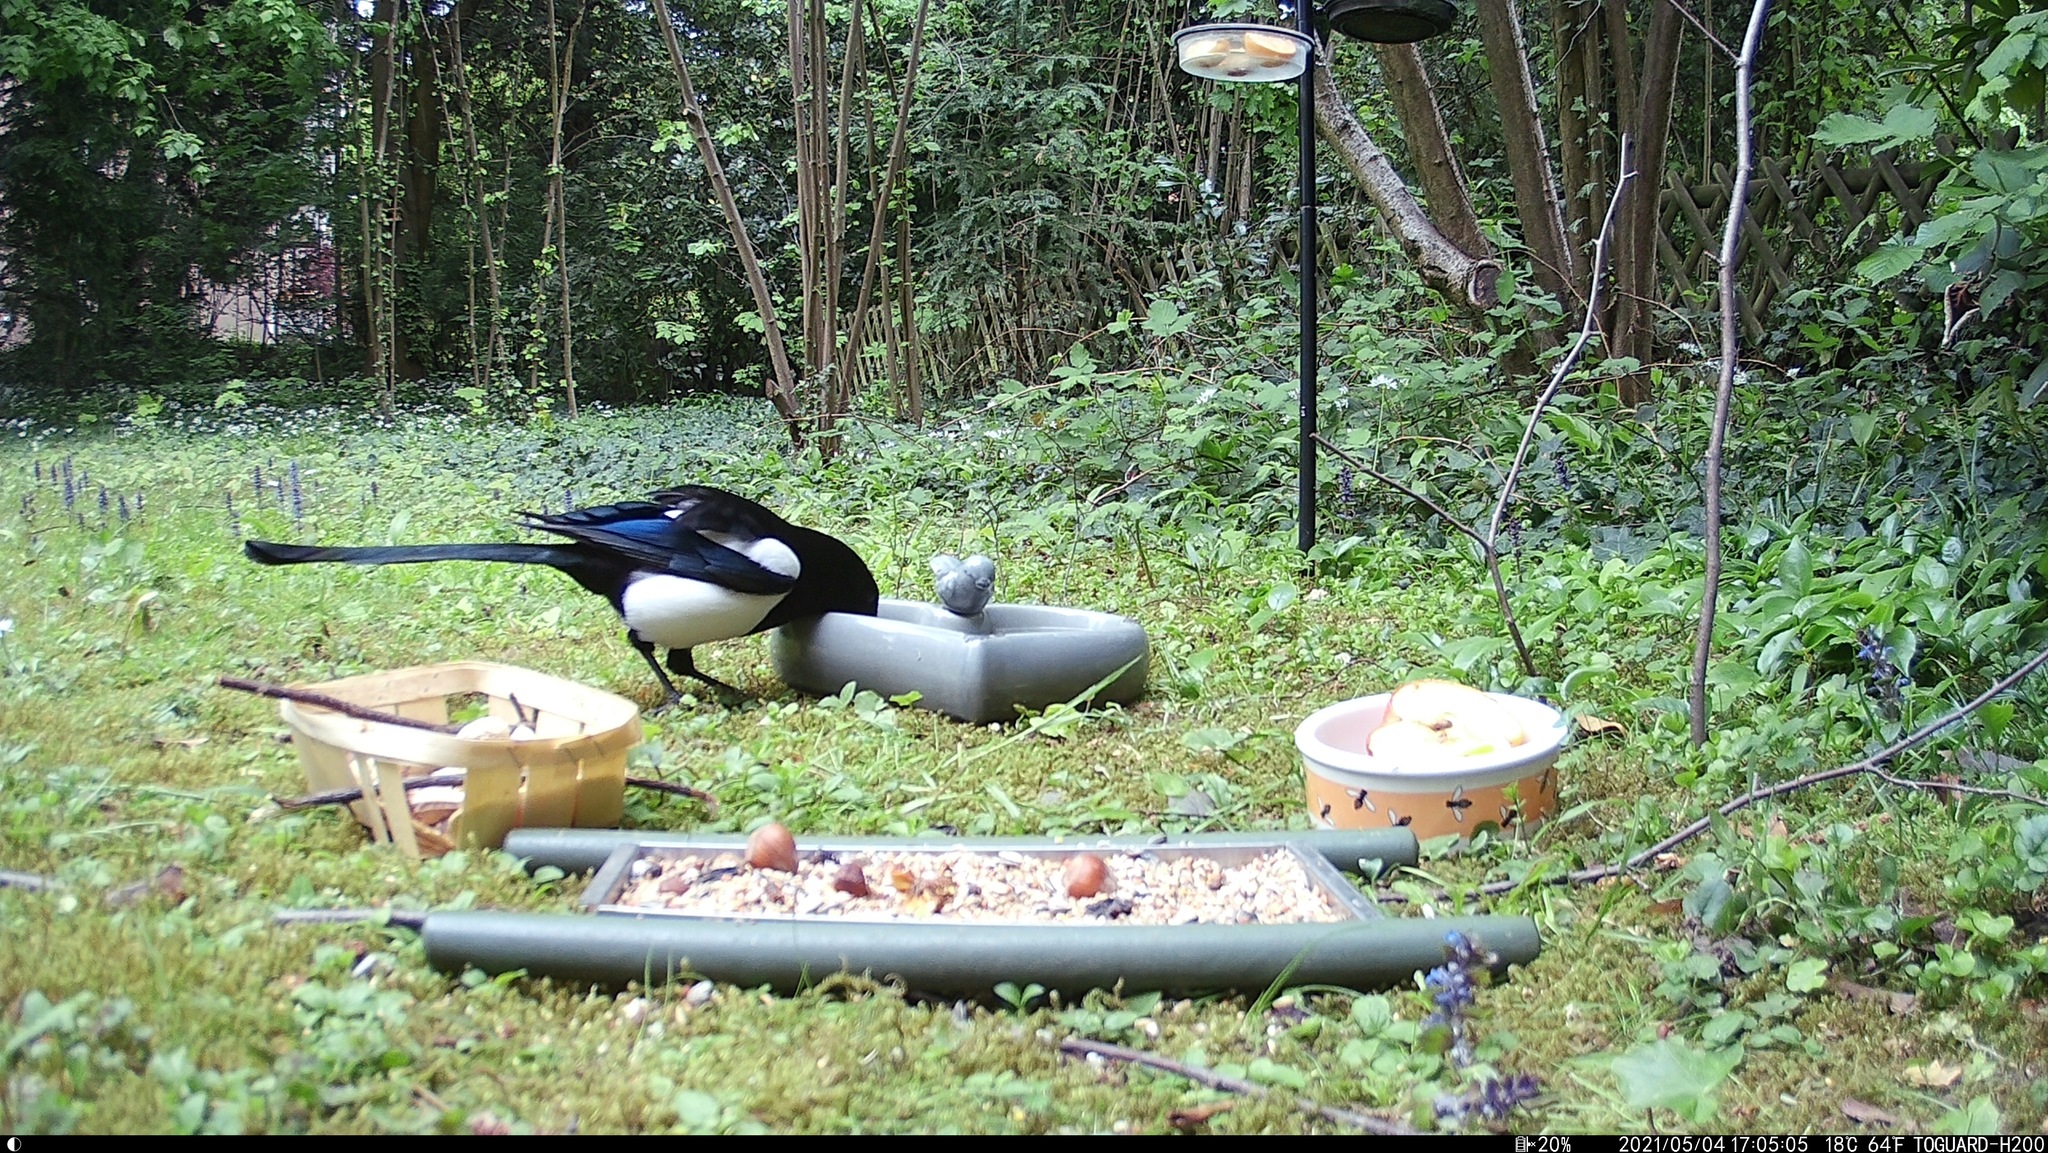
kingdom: Animalia
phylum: Chordata
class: Aves
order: Passeriformes
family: Corvidae
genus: Pica
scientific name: Pica pica
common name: Eurasian magpie
